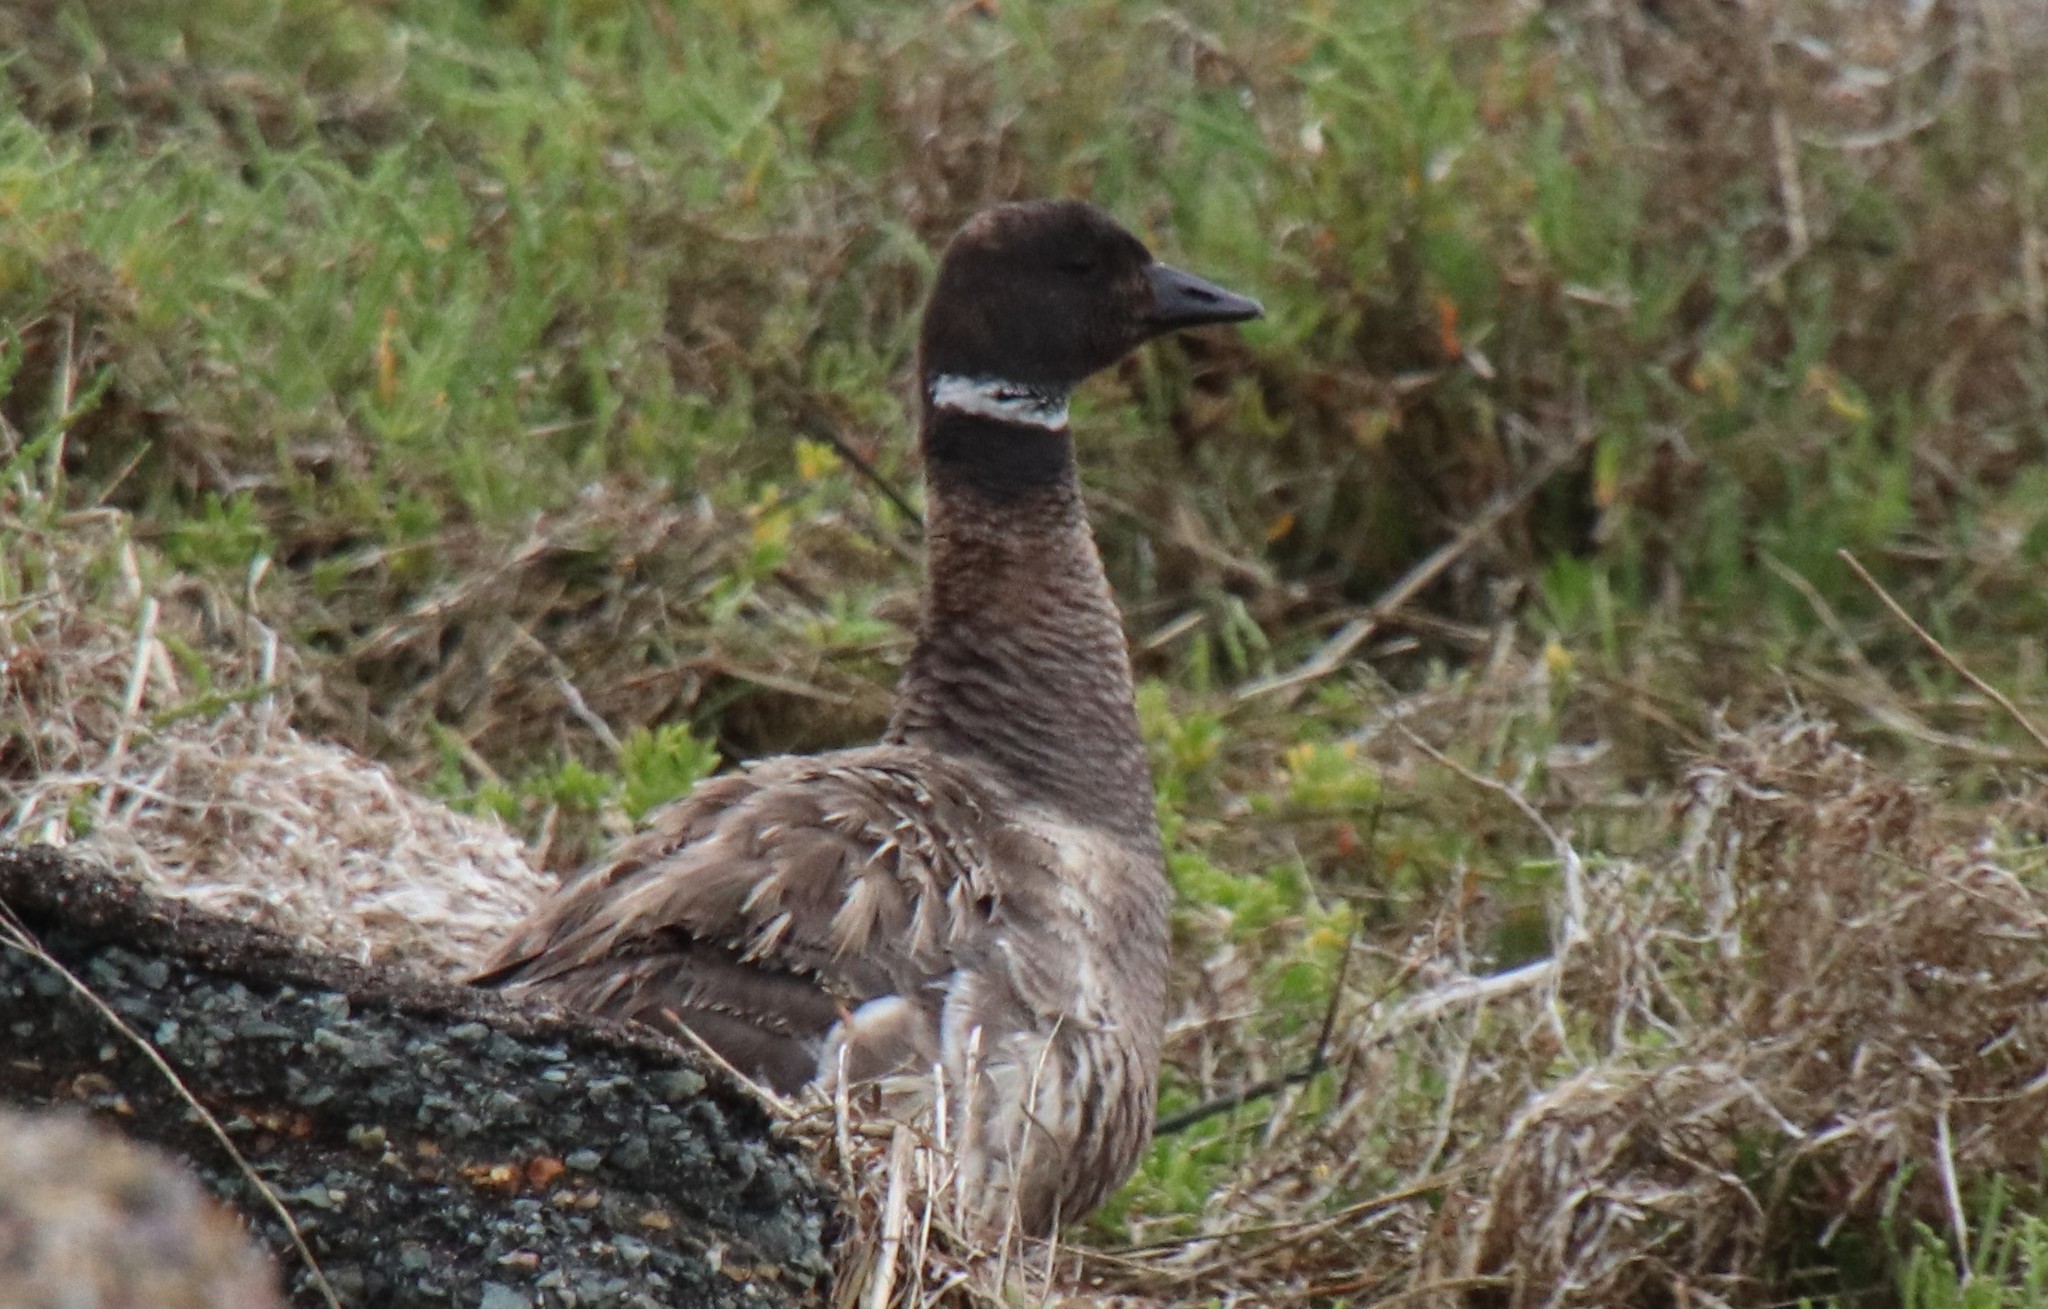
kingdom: Animalia
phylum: Chordata
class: Aves
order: Anseriformes
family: Anatidae
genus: Branta
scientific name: Branta bernicla
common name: Brant goose
